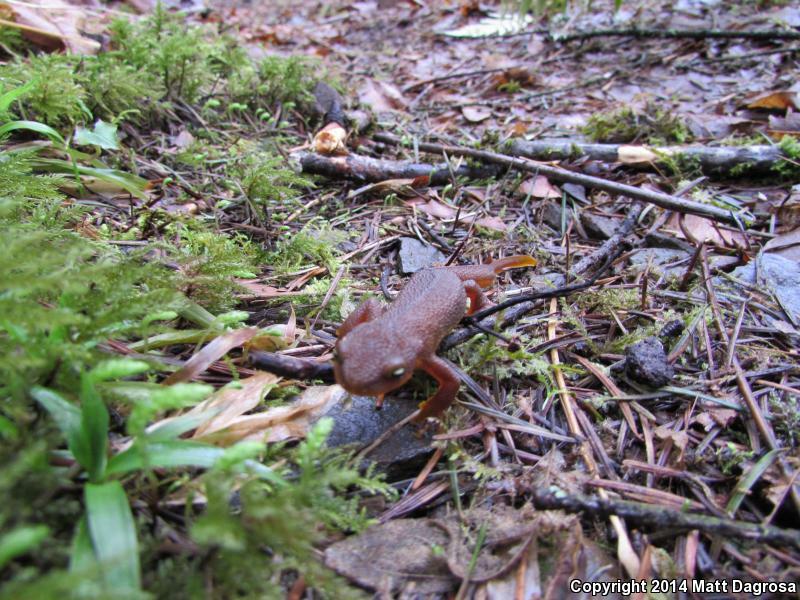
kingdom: Animalia
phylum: Chordata
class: Amphibia
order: Caudata
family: Salamandridae
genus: Taricha
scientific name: Taricha granulosa
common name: Roughskin newt
